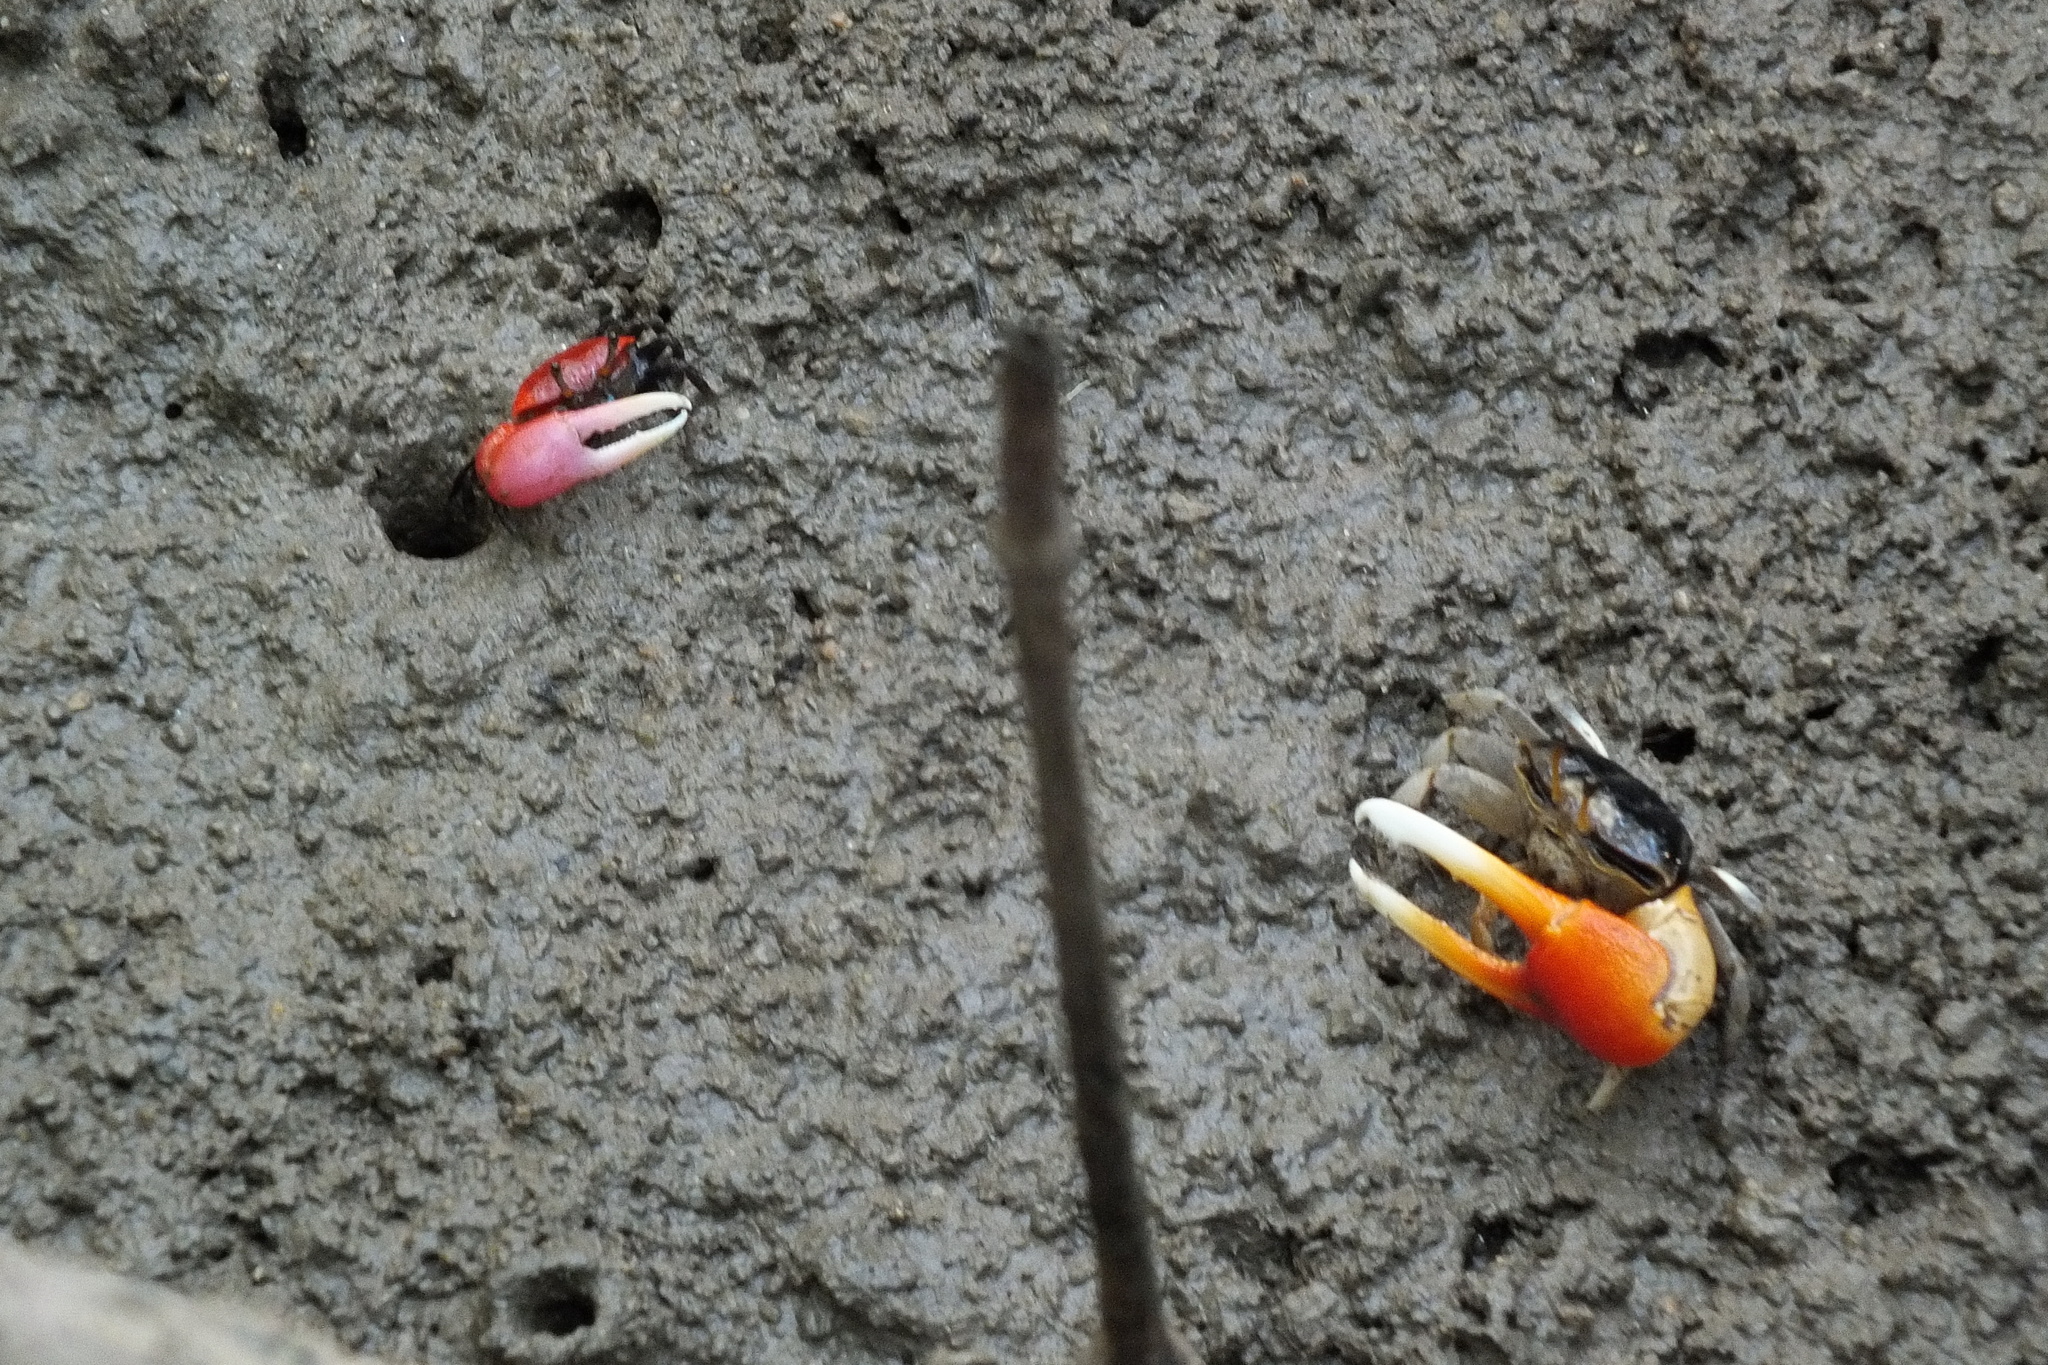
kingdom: Animalia
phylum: Arthropoda
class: Malacostraca
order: Decapoda
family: Ocypodidae
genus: Paraleptuca
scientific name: Paraleptuca crassipes
